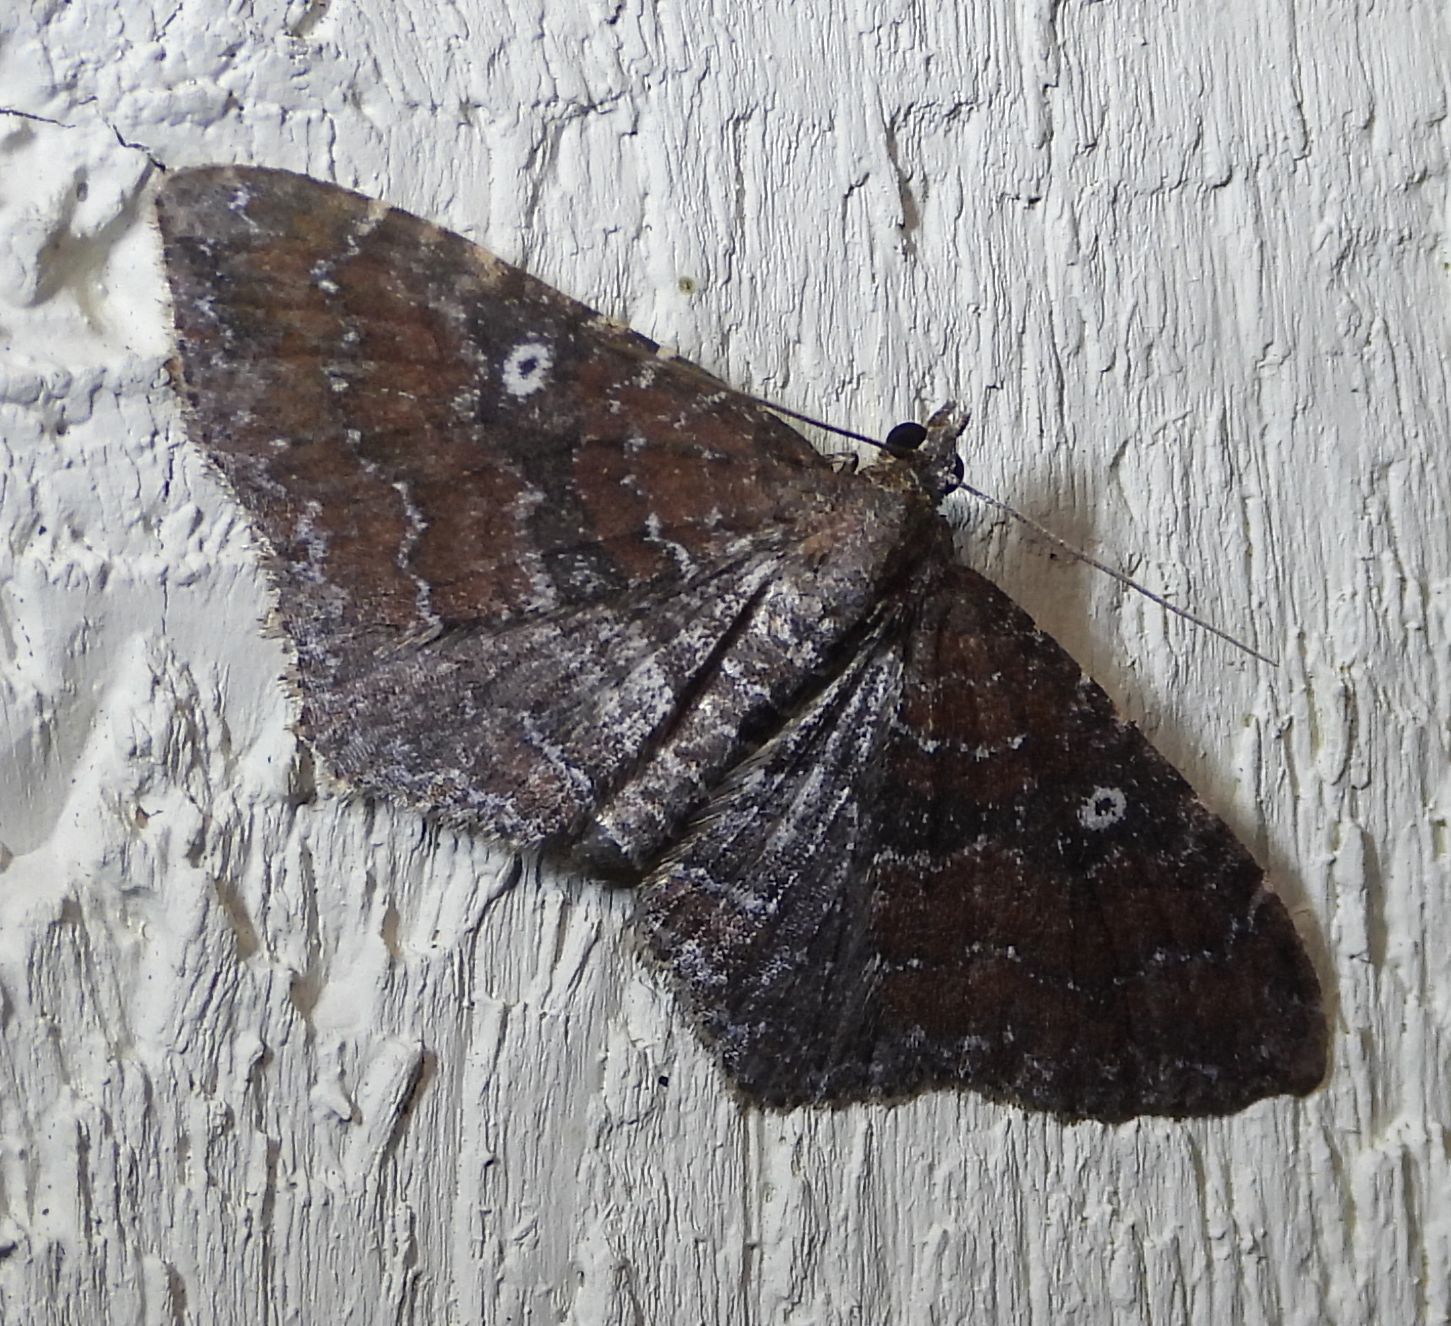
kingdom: Animalia
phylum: Arthropoda
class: Insecta
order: Lepidoptera
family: Geometridae
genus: Orthonama
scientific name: Orthonama obstipata
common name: The gem
